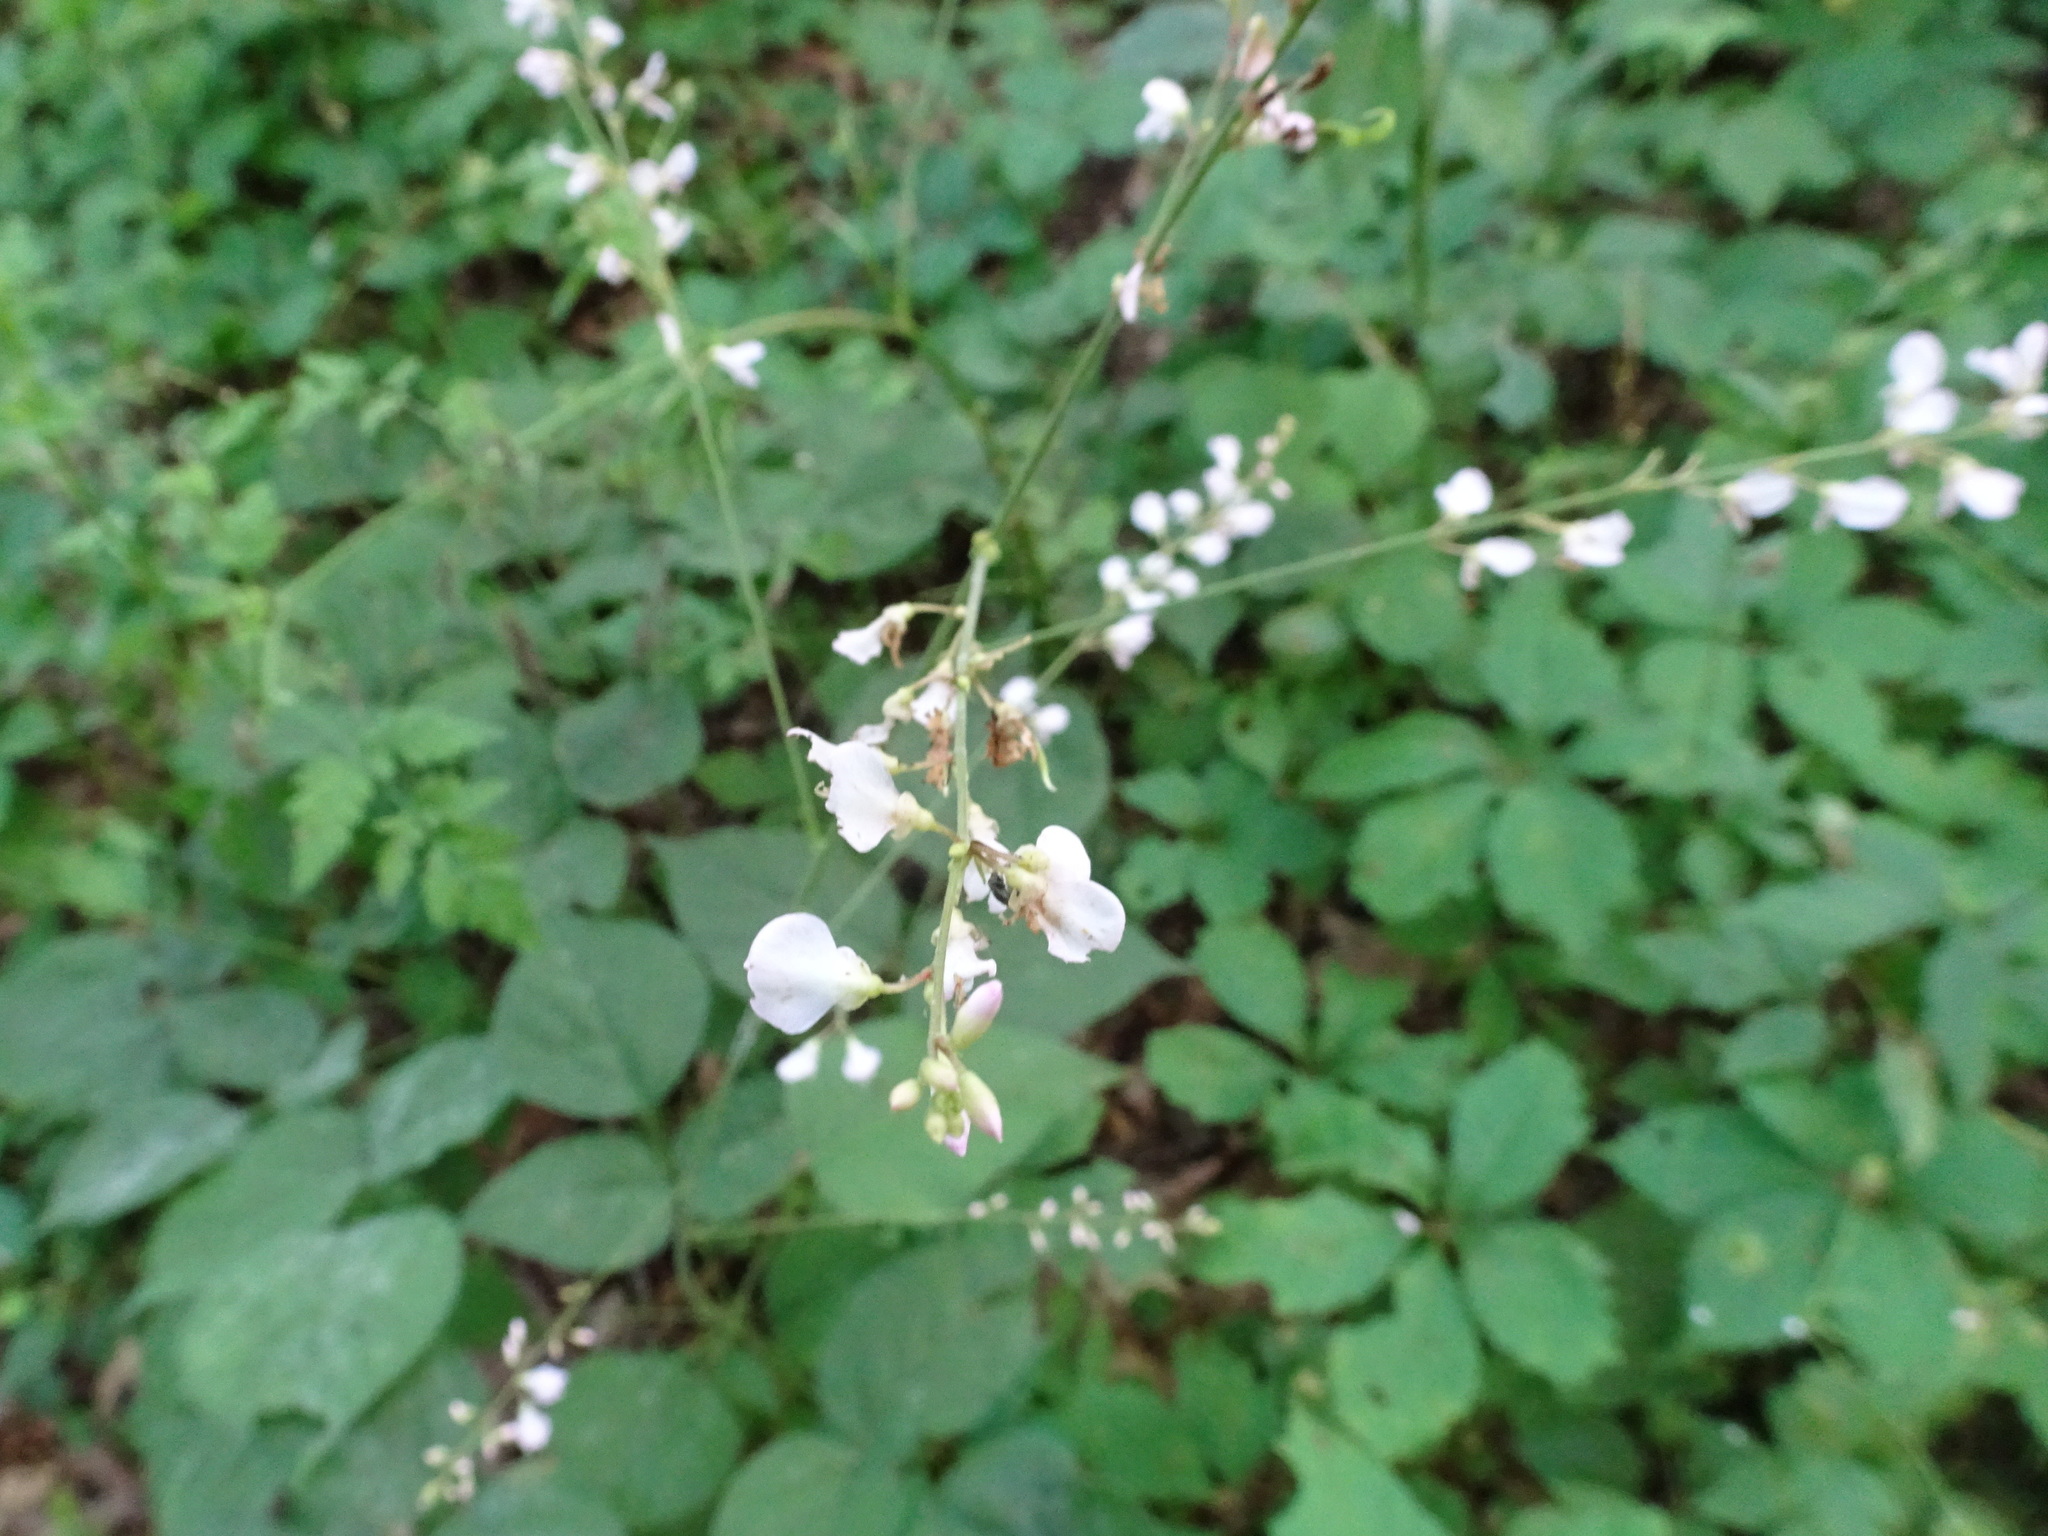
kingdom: Plantae
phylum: Tracheophyta
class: Magnoliopsida
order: Fabales
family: Fabaceae
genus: Hylodesmum
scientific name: Hylodesmum glutinosum
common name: Clustered-leaved tick-trefoil
